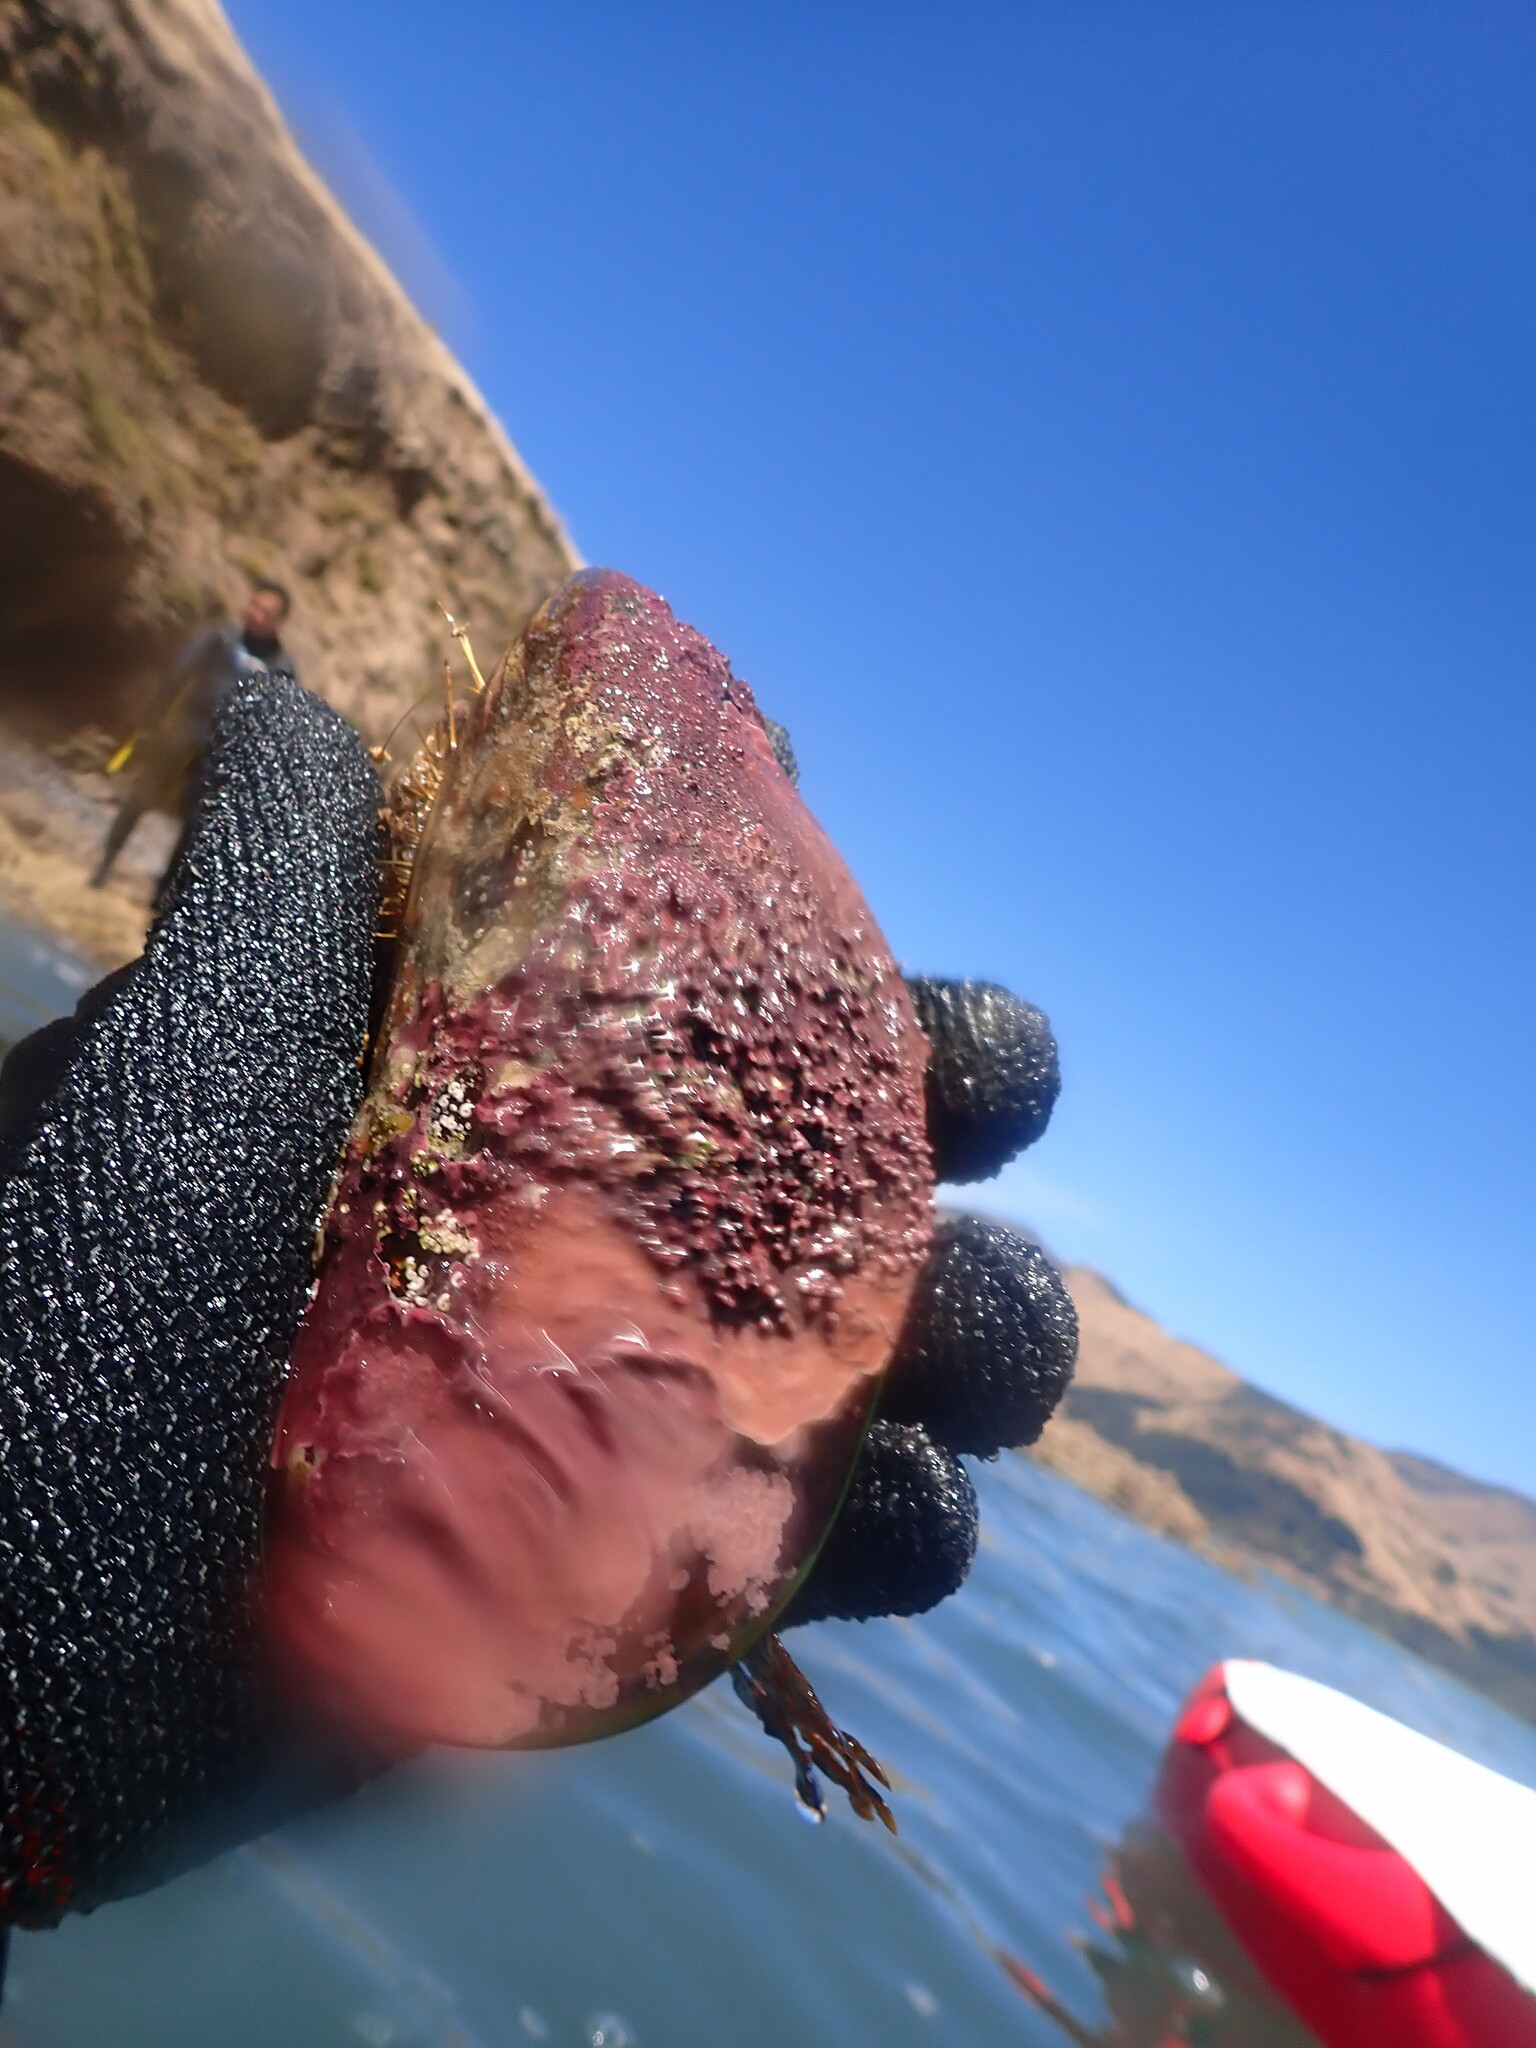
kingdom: Animalia
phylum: Mollusca
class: Bivalvia
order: Mytilida
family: Mytilidae
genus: Perna
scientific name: Perna canaliculus
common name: New zealand greenshelltm
